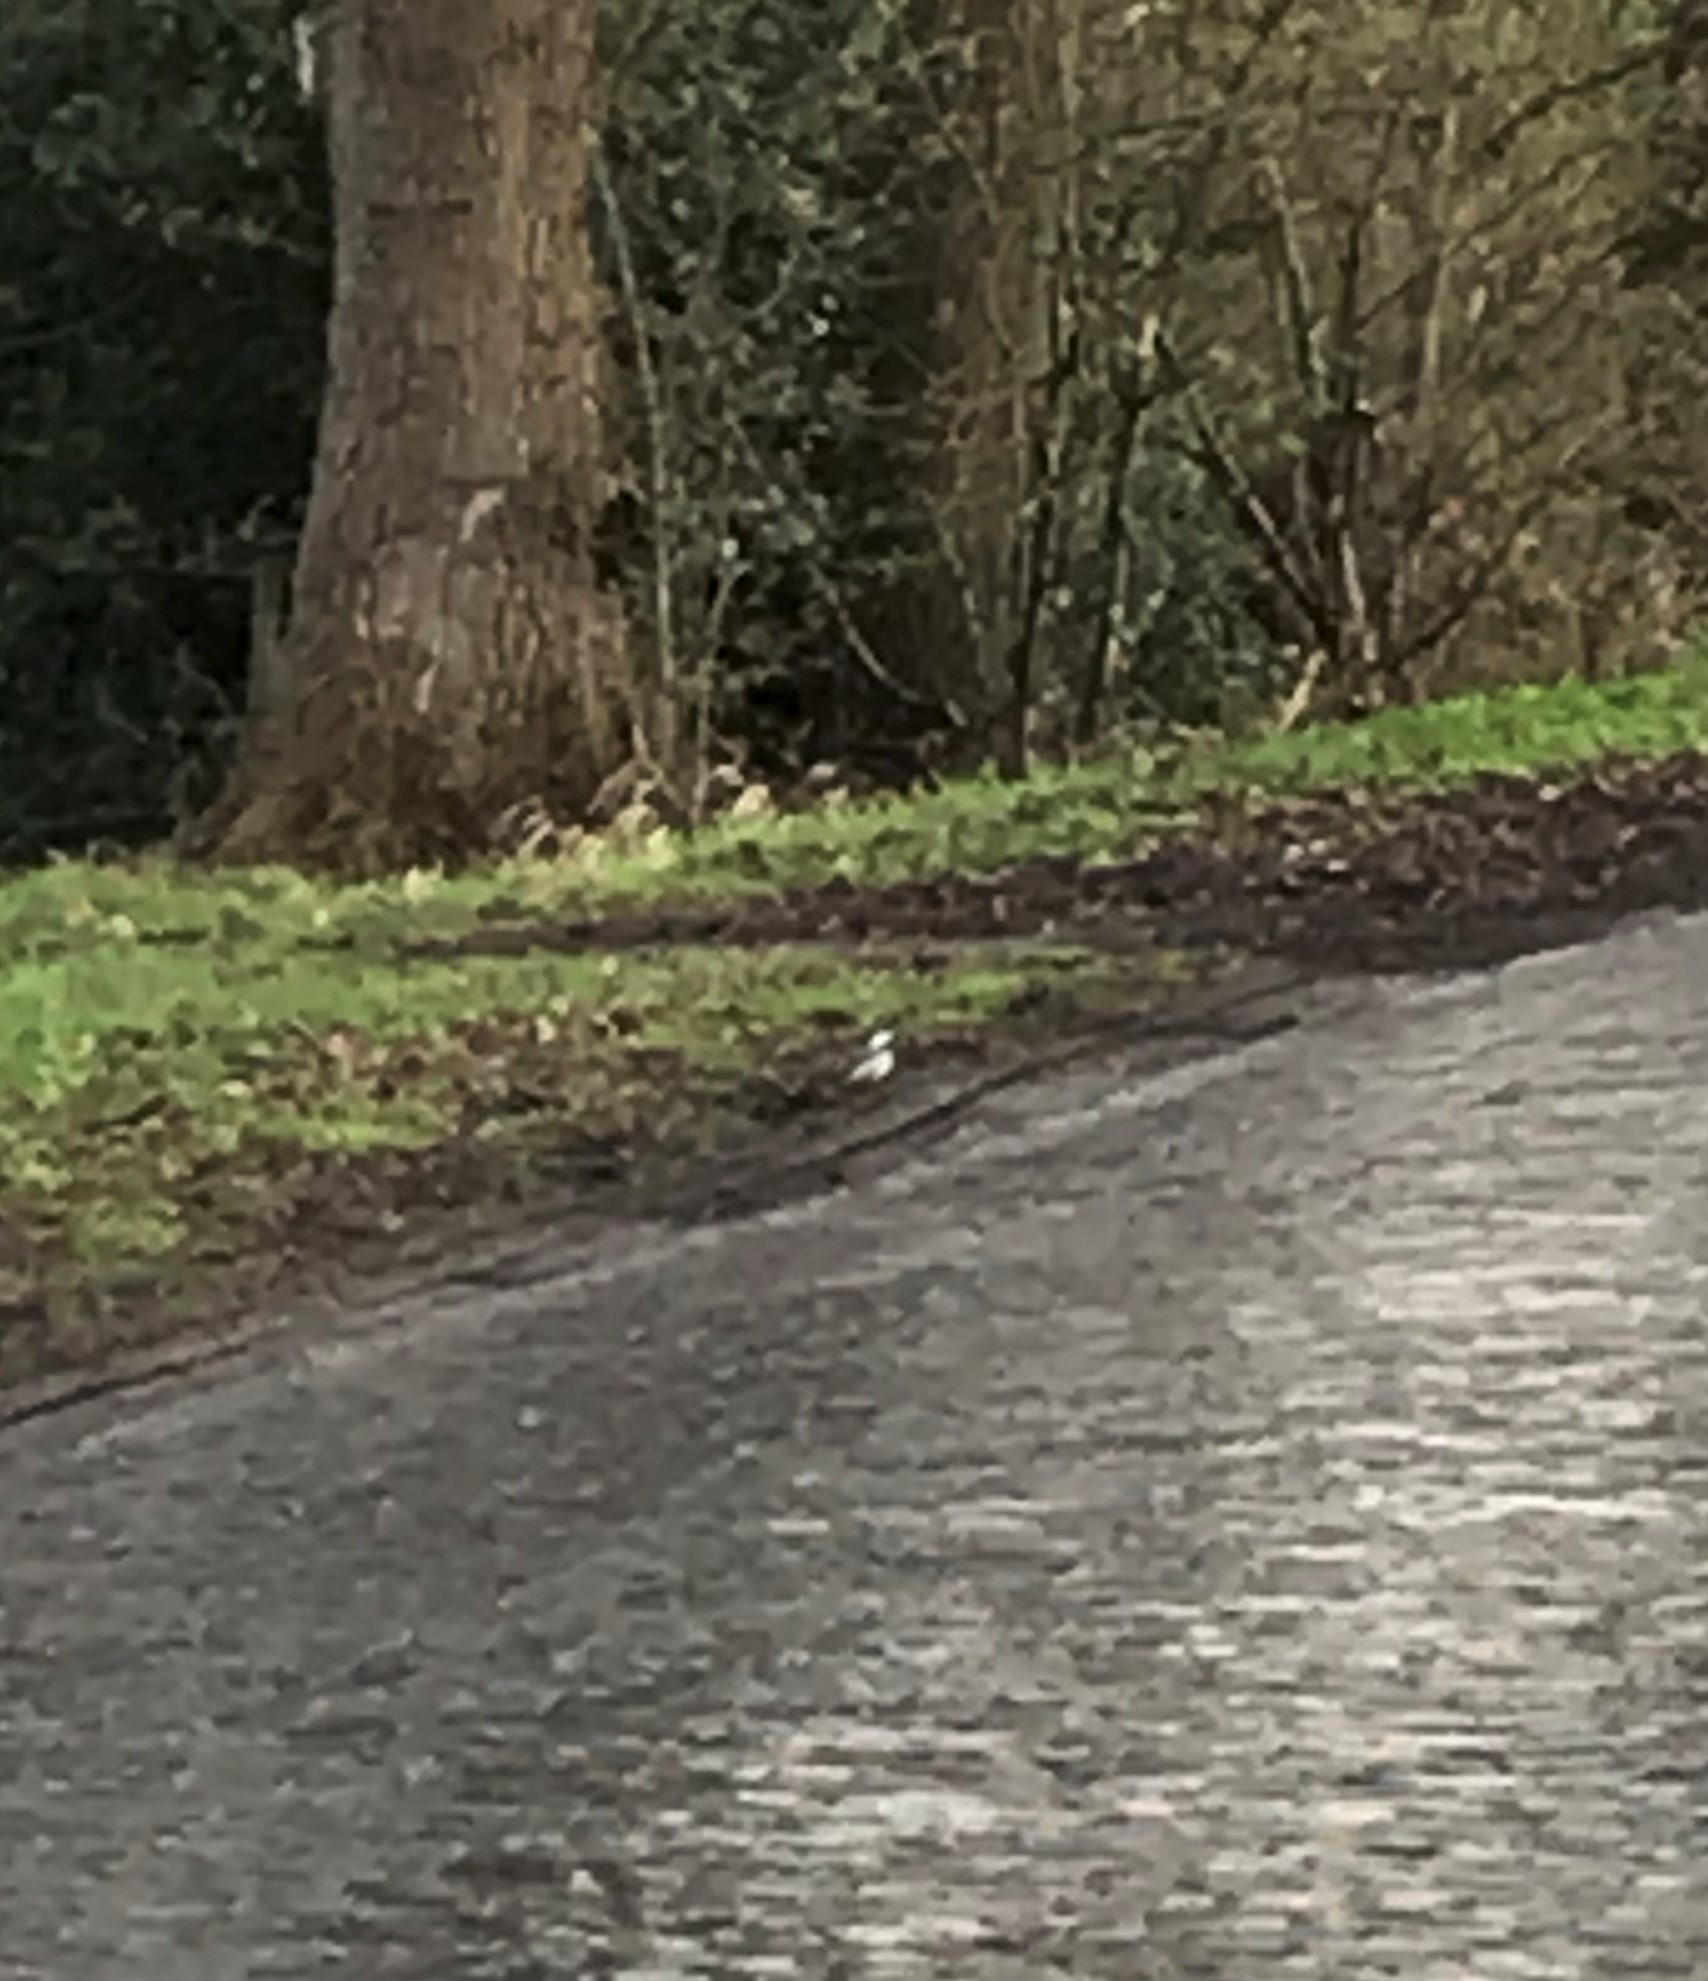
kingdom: Animalia
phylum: Chordata
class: Aves
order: Passeriformes
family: Motacillidae
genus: Motacilla
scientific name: Motacilla alba
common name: White wagtail
